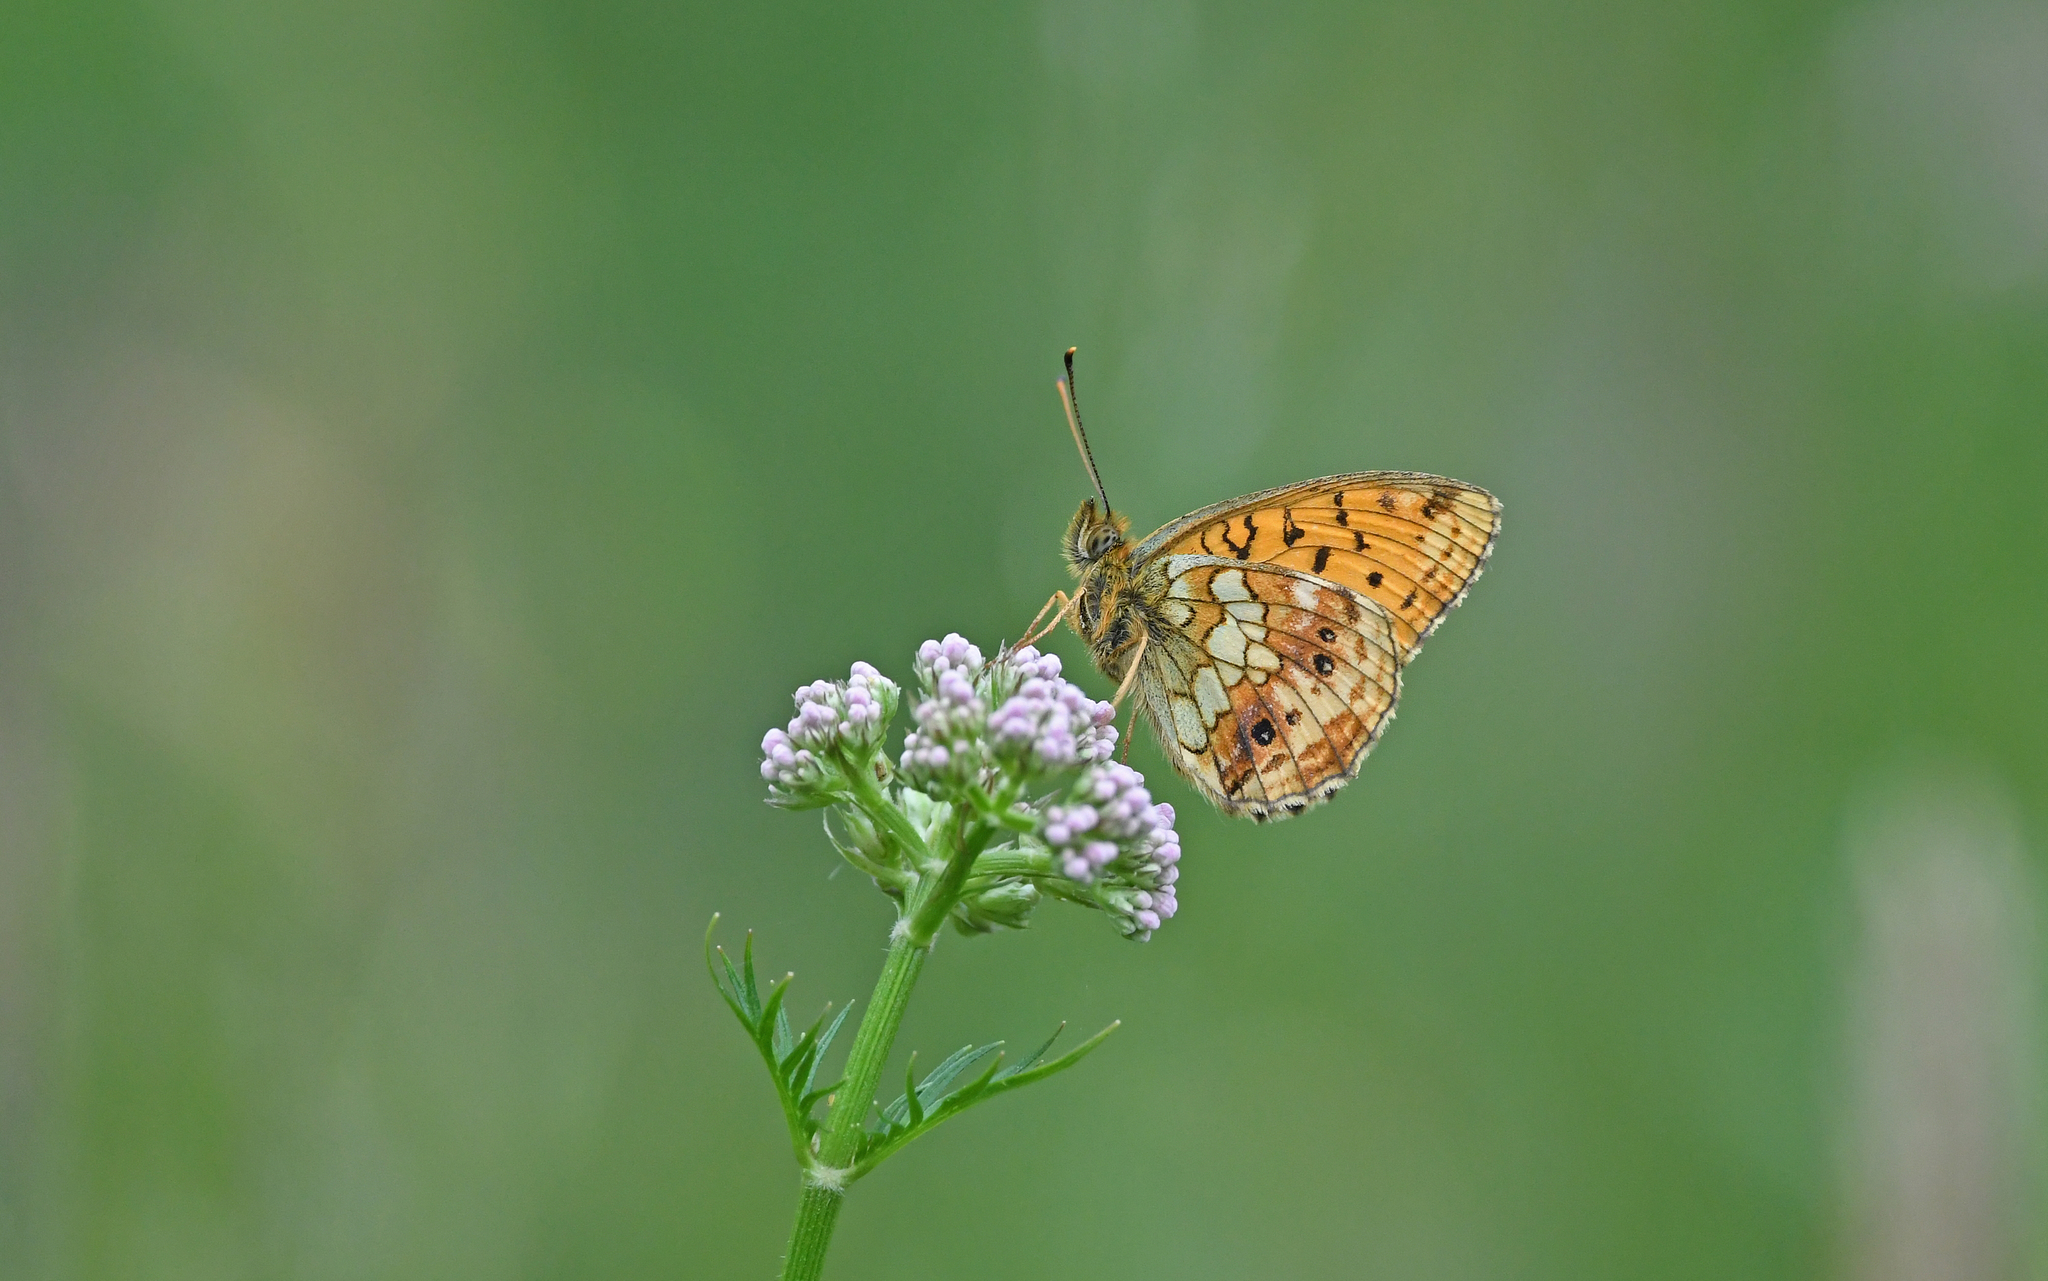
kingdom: Animalia
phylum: Arthropoda
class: Insecta
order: Lepidoptera
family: Nymphalidae
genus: Brenthis
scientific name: Brenthis ino
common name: Lesser marbled fritillary
